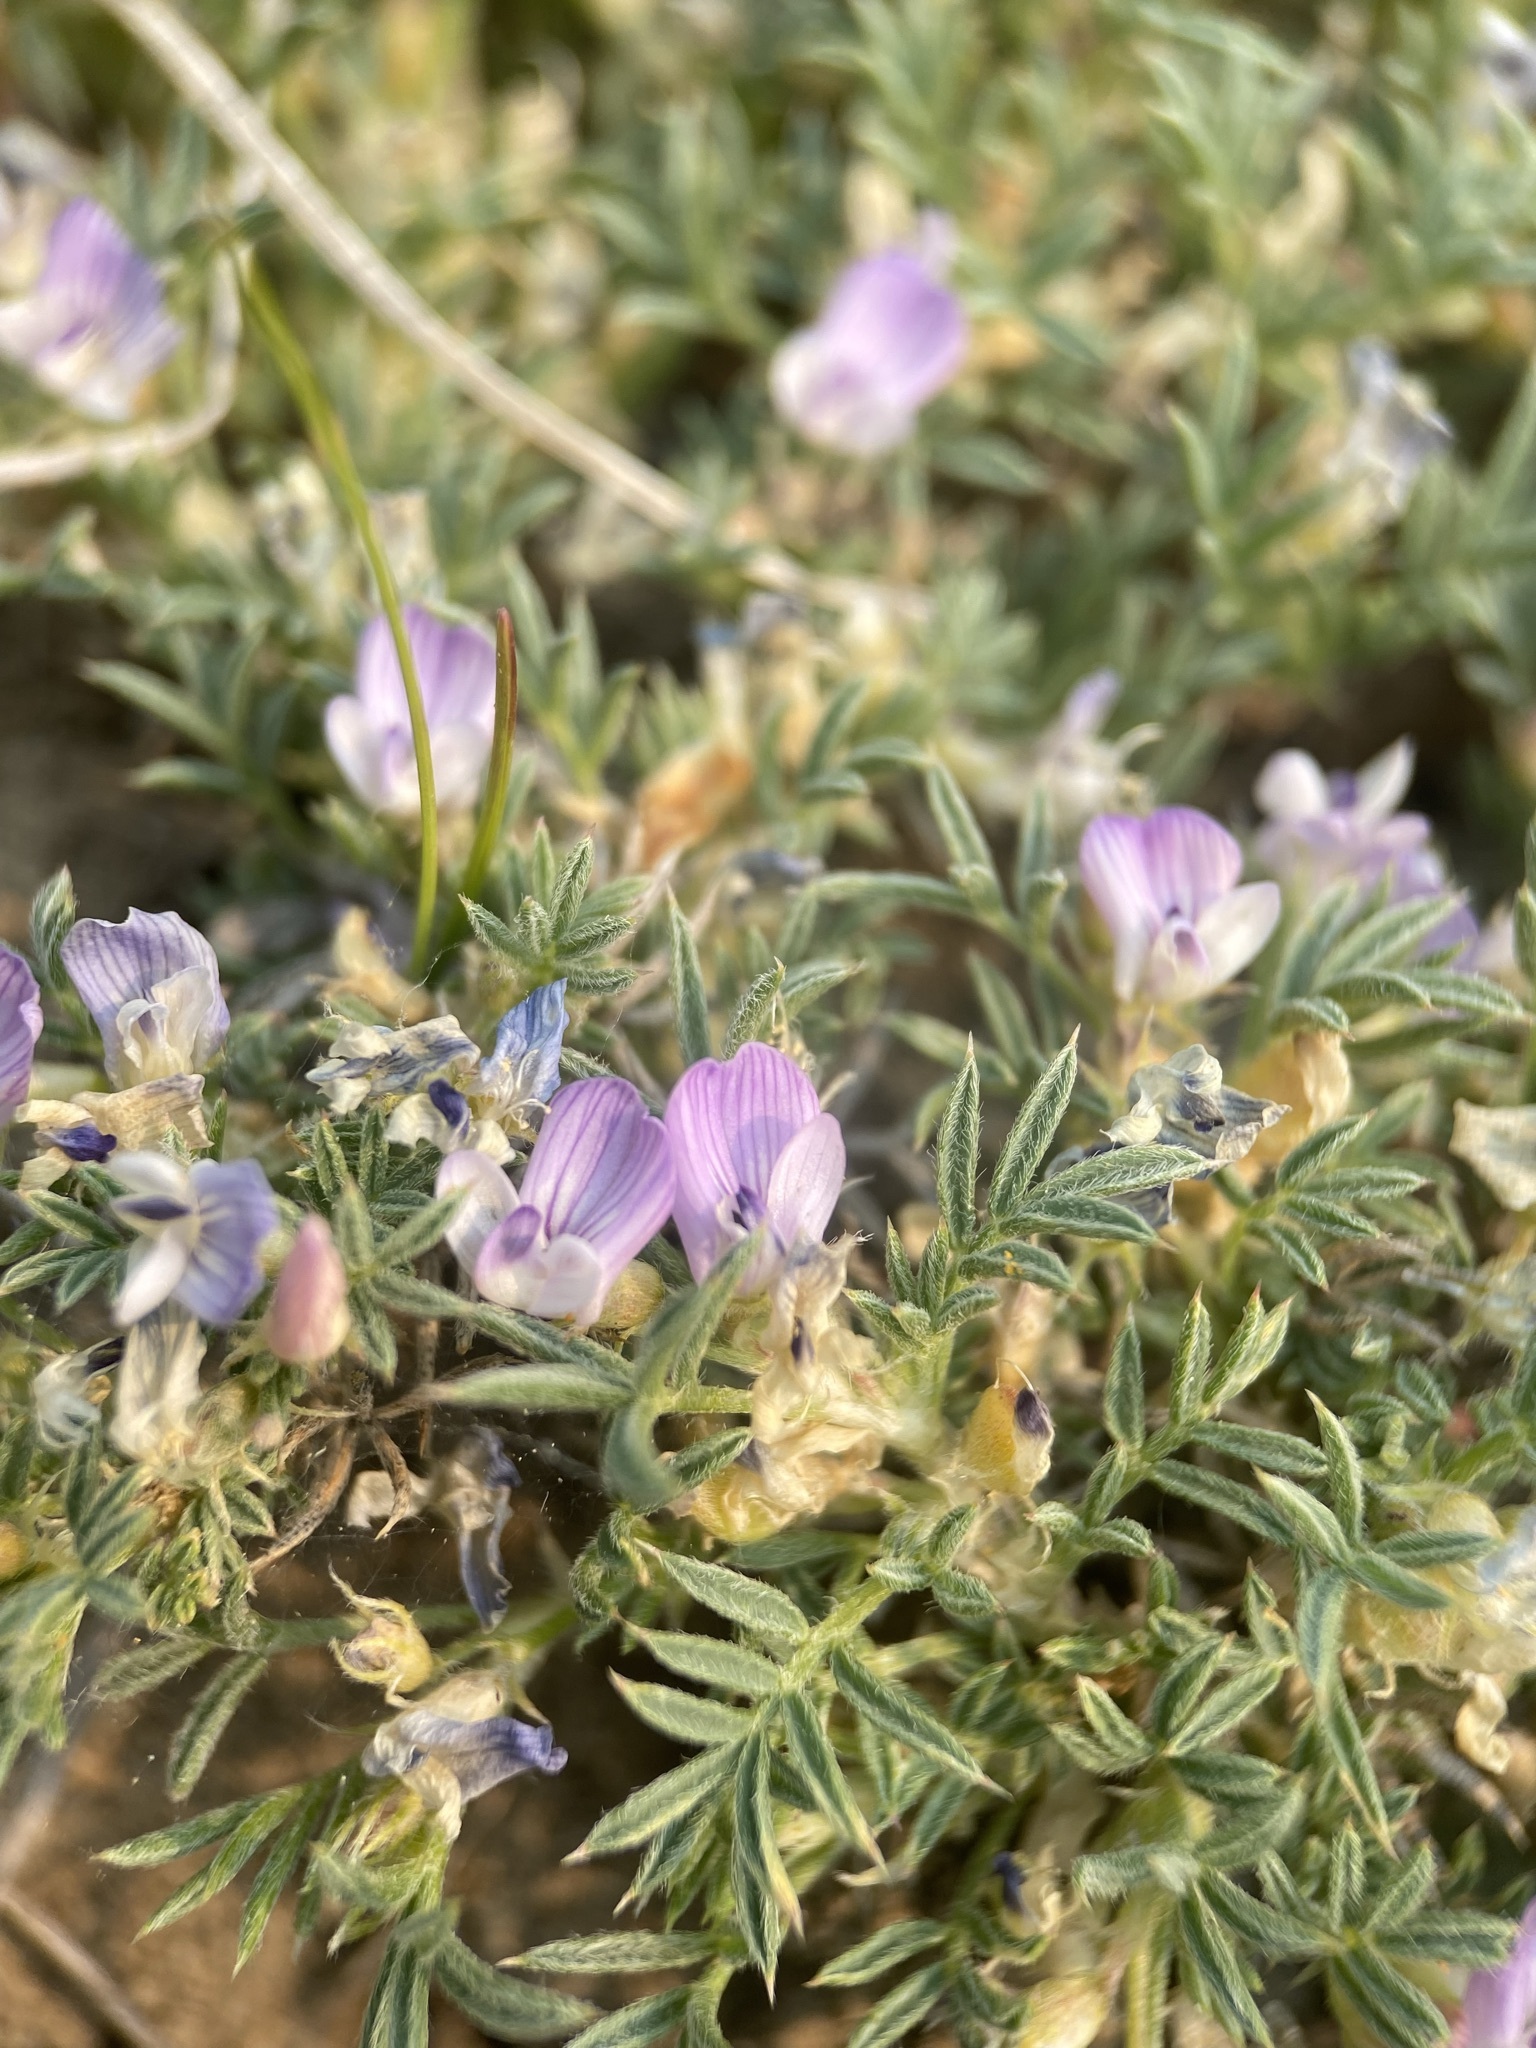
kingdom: Plantae
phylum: Tracheophyta
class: Magnoliopsida
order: Fabales
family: Fabaceae
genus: Astragalus
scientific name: Astragalus kentrophyta
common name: Prickly milk-vetch
